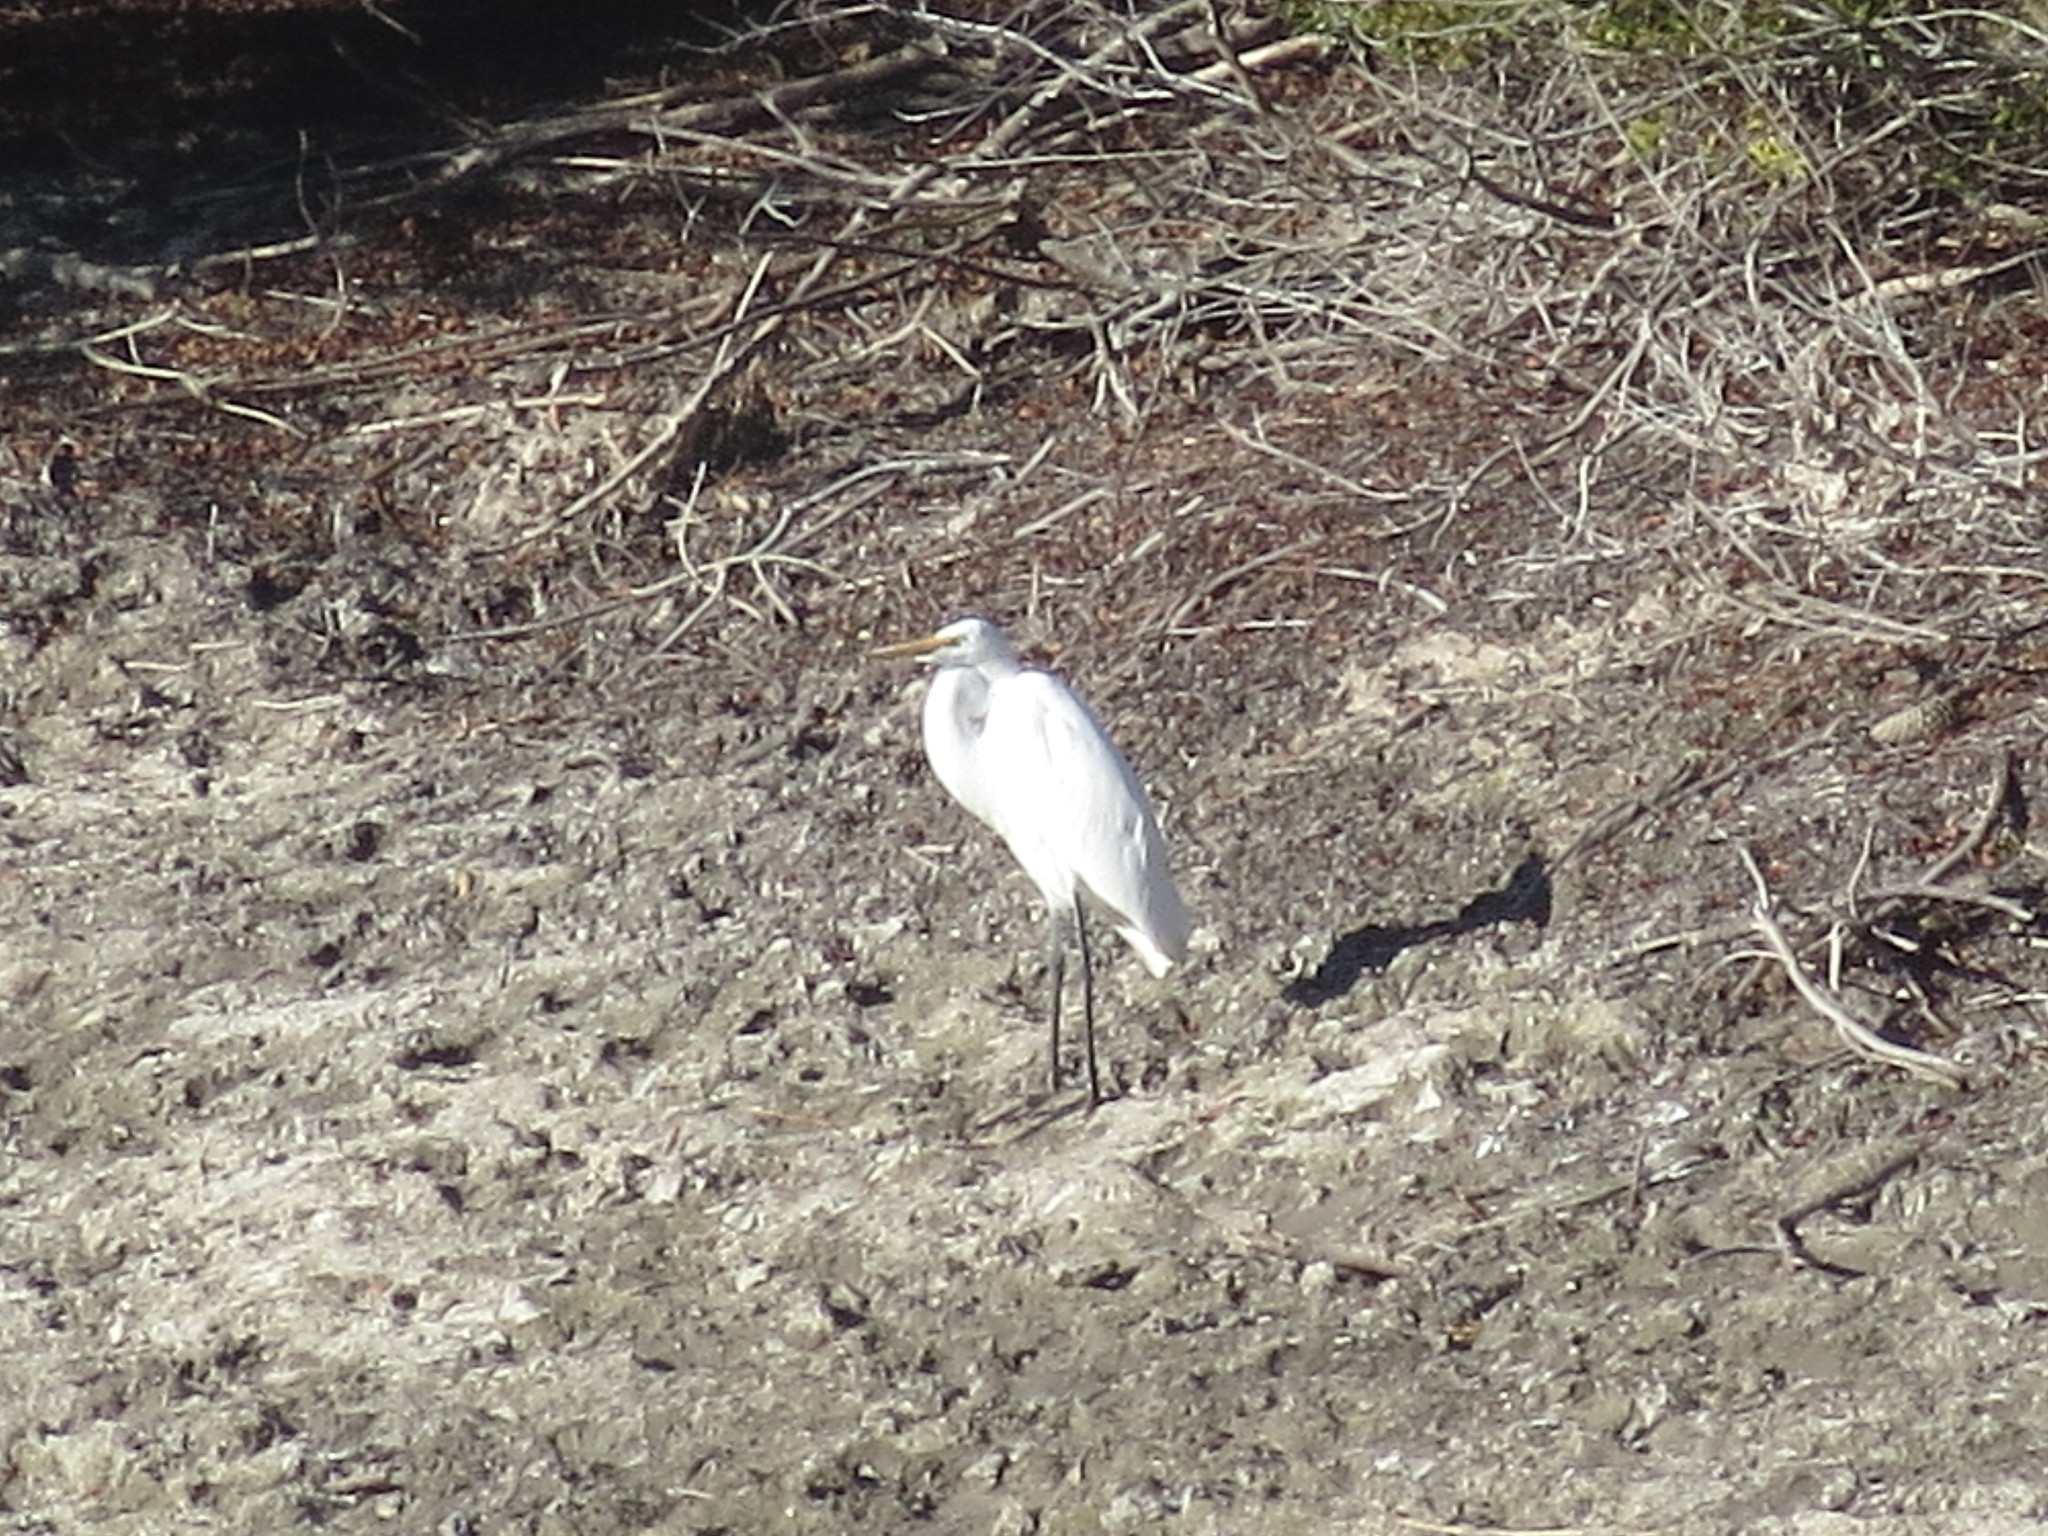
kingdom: Animalia
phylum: Chordata
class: Aves
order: Pelecaniformes
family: Ardeidae
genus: Ardea
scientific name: Ardea alba
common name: Great egret
